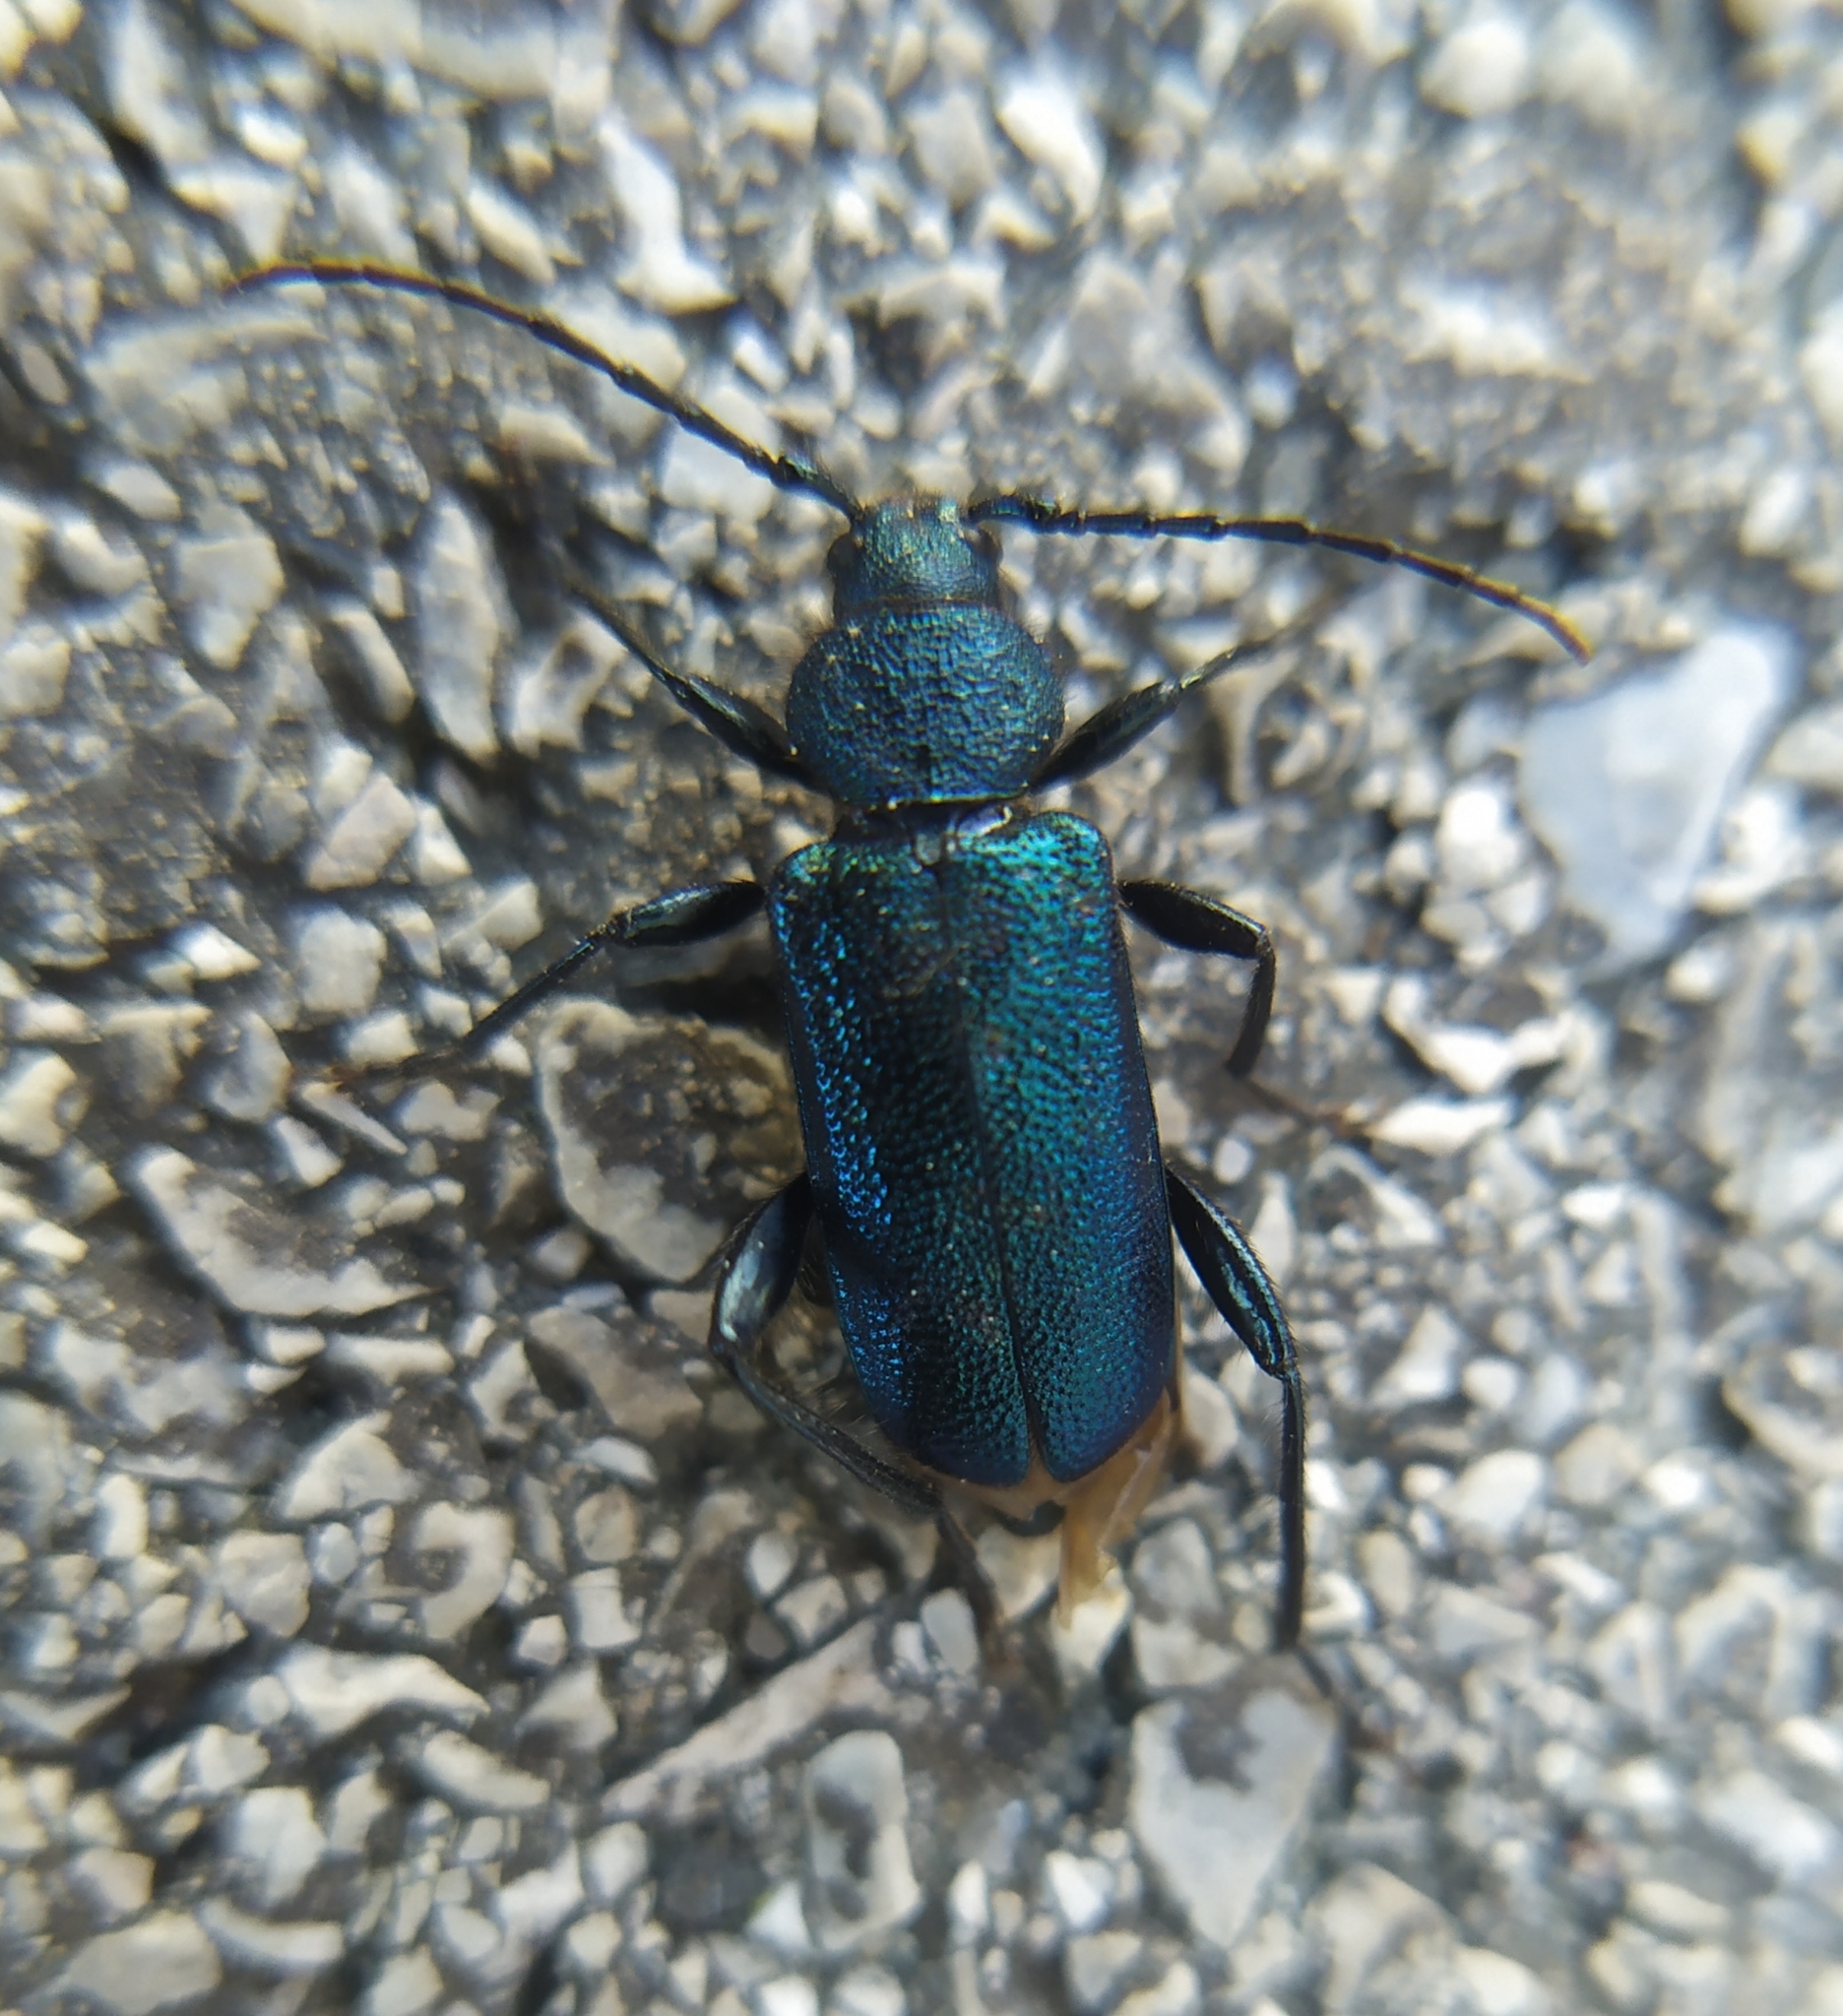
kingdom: Animalia
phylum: Arthropoda
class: Insecta
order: Coleoptera
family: Cerambycidae
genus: Callidium
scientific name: Callidium violaceum
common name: Violet tanbark beetle
